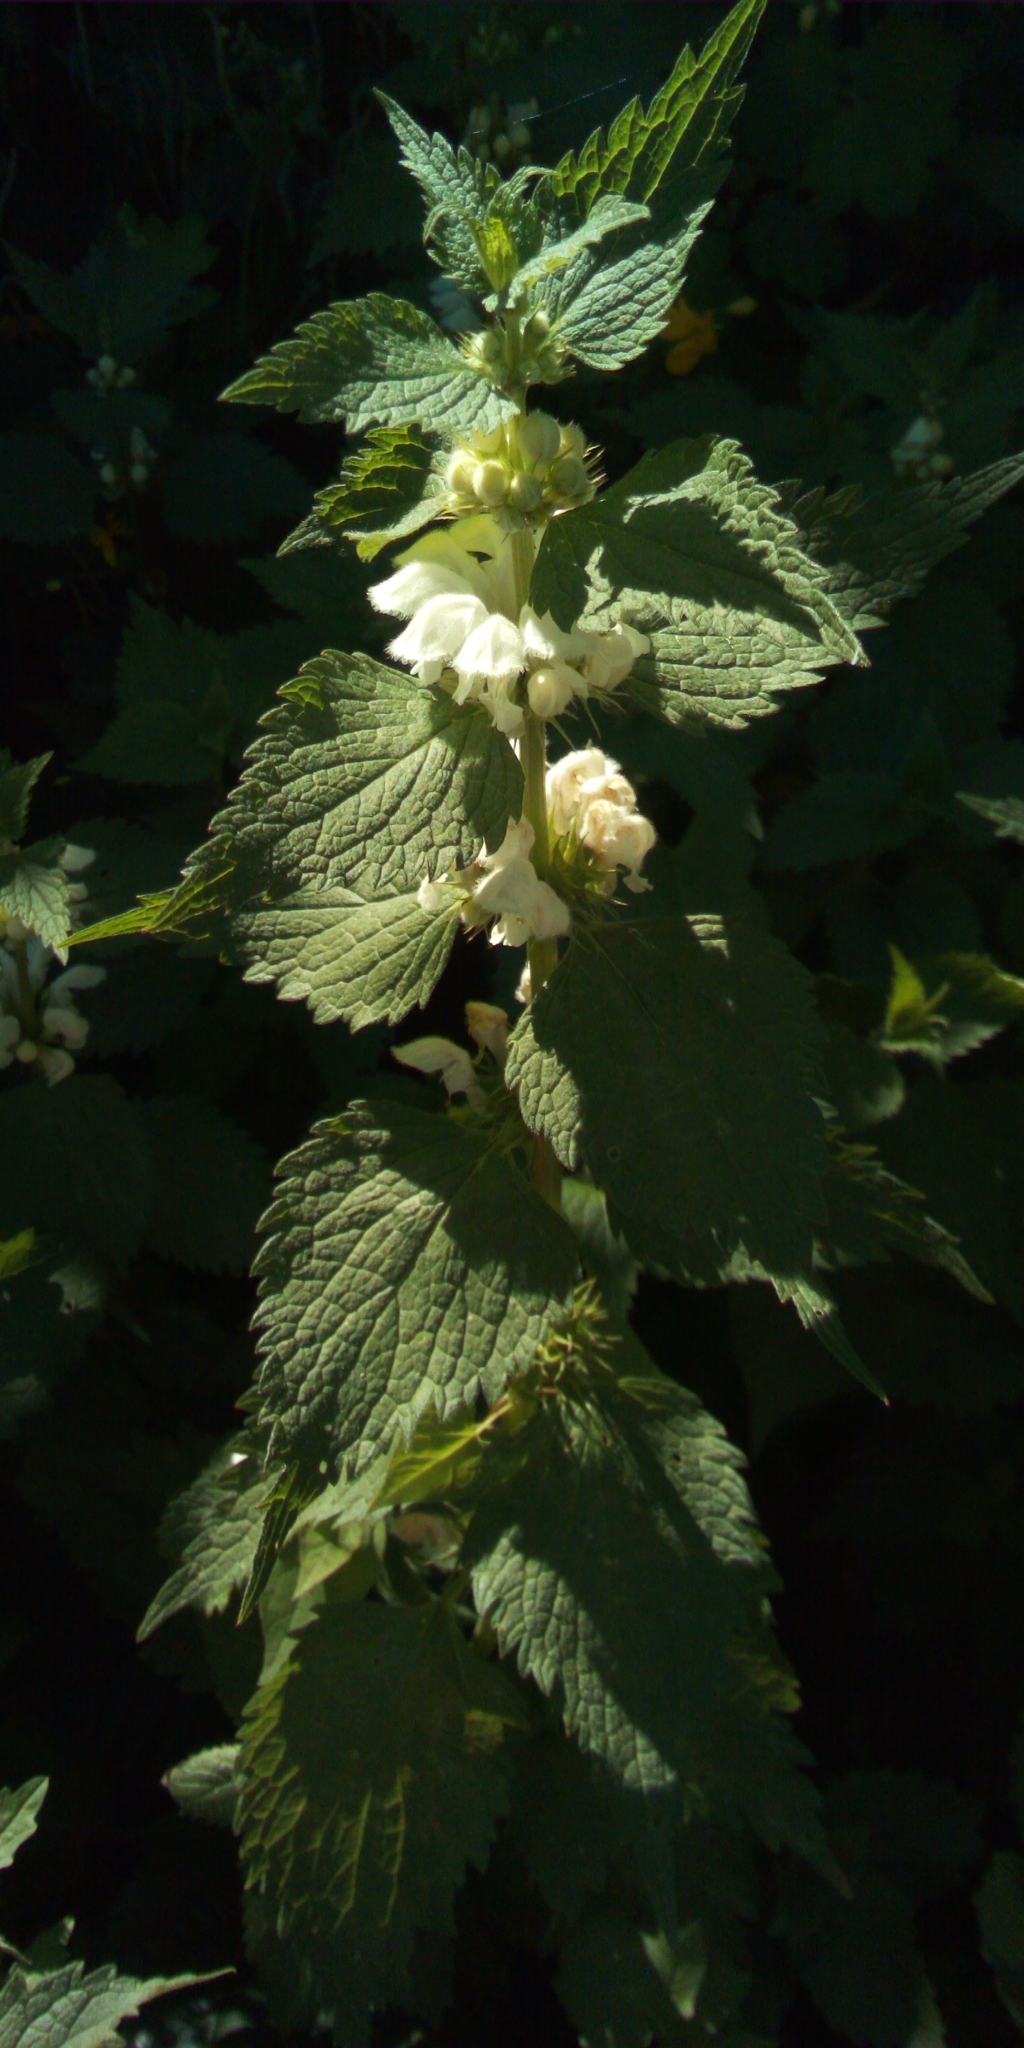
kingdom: Plantae
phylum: Tracheophyta
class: Magnoliopsida
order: Lamiales
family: Lamiaceae
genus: Lamium
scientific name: Lamium album
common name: White dead-nettle
